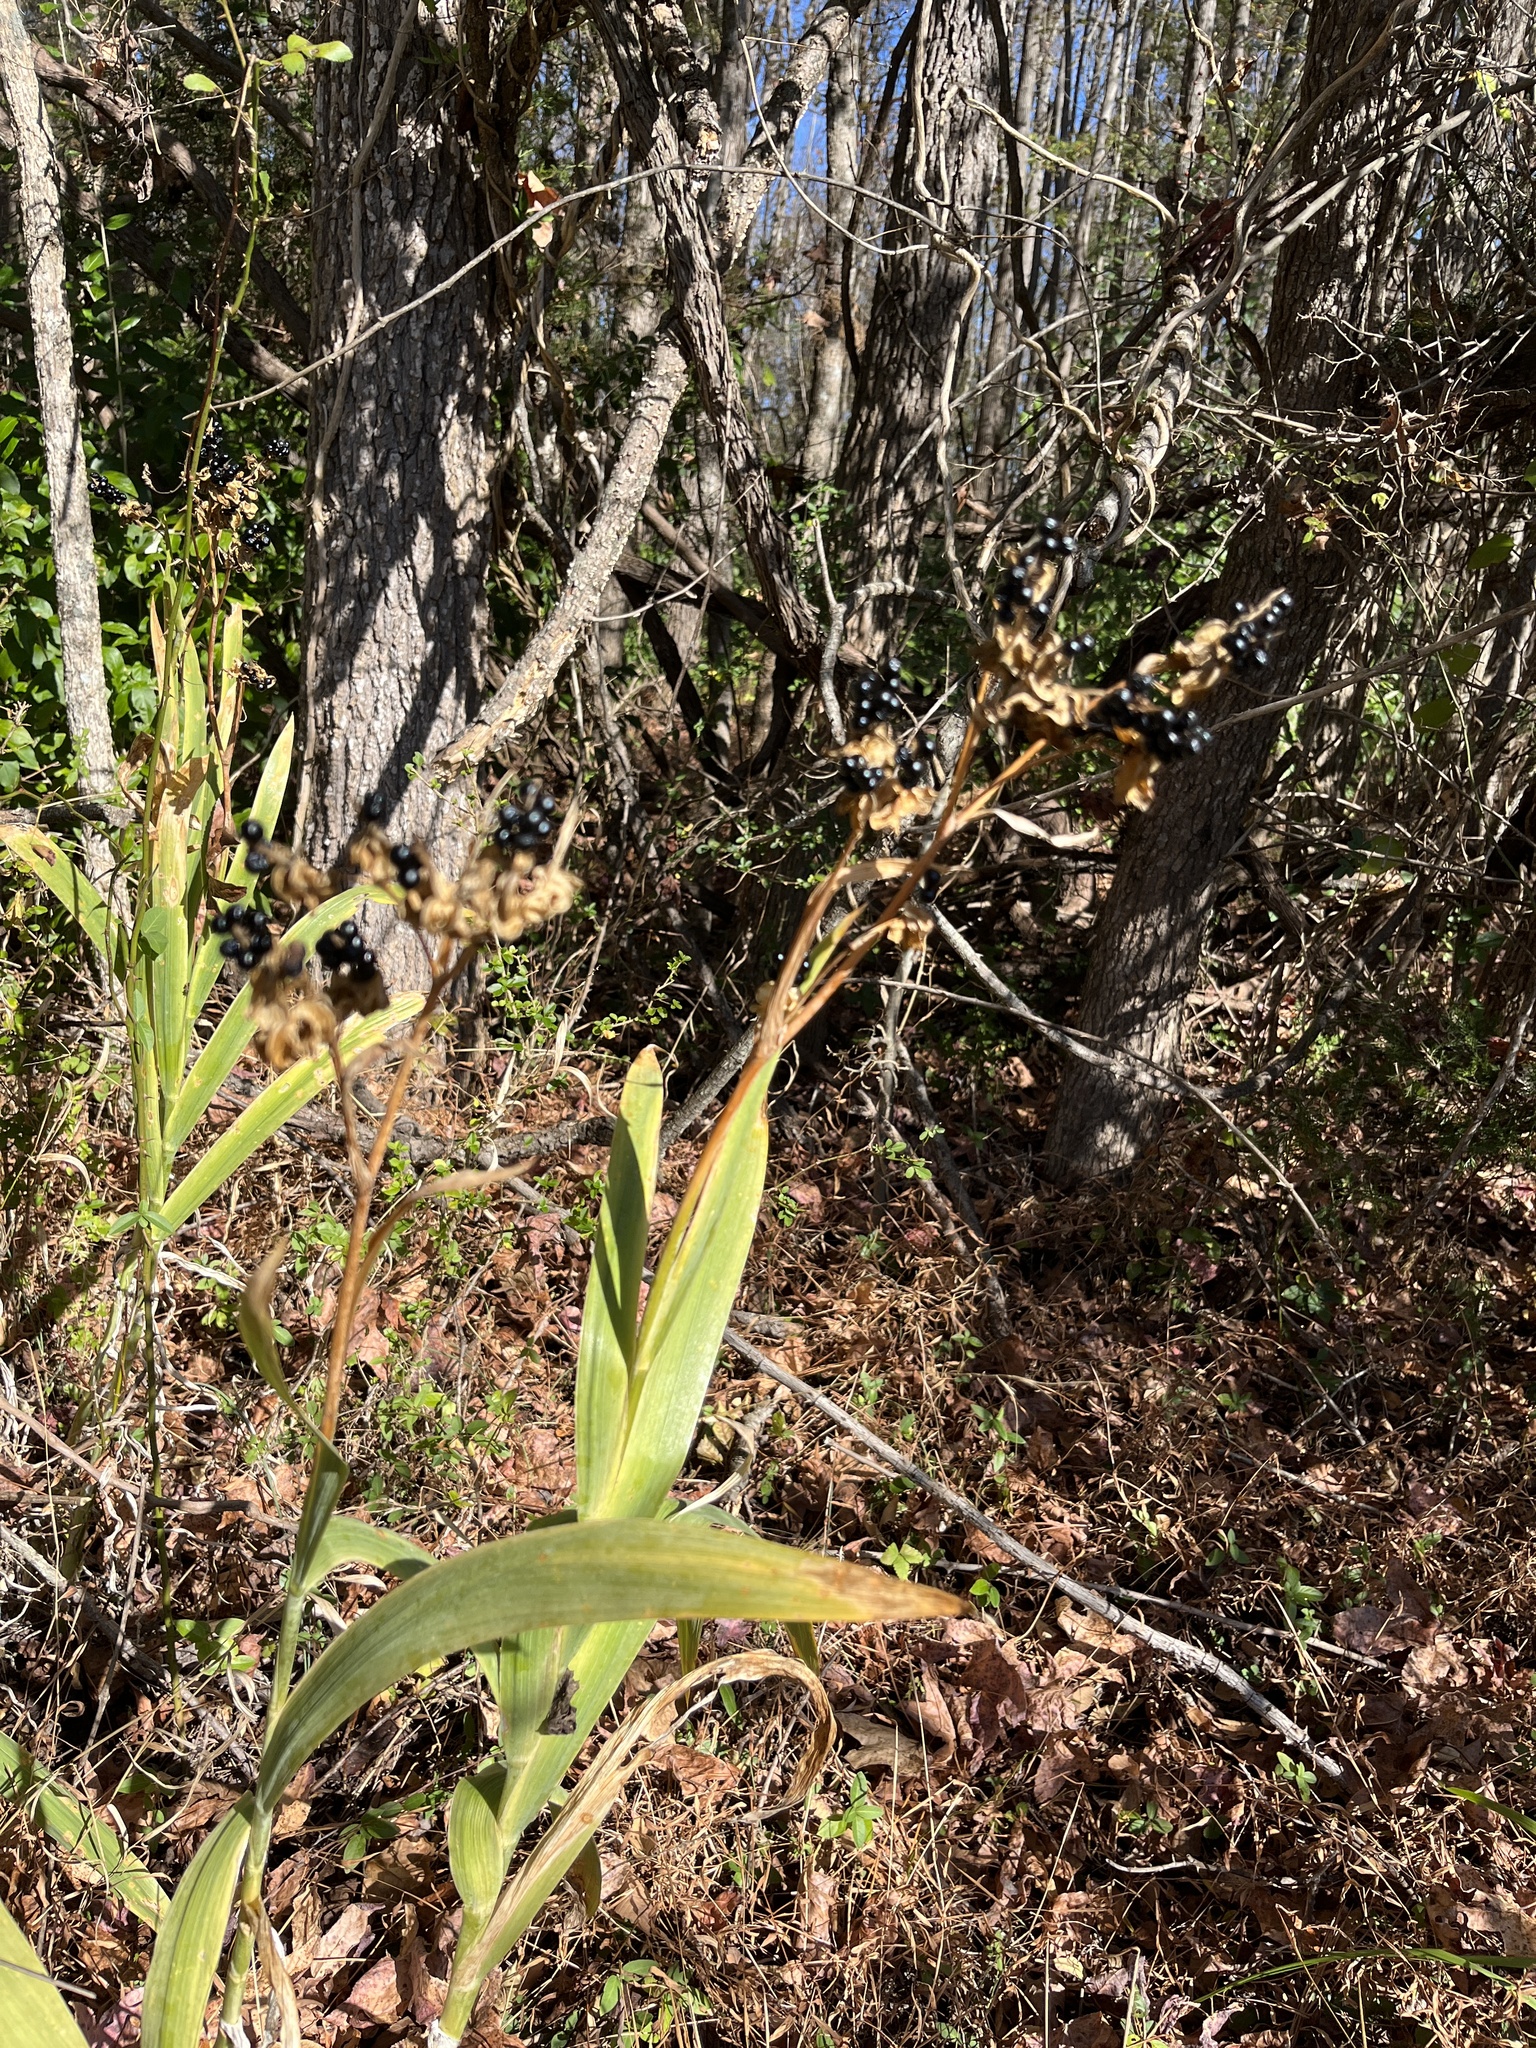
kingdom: Plantae
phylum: Tracheophyta
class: Liliopsida
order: Asparagales
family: Iridaceae
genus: Iris
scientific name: Iris domestica
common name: Belamcanda
